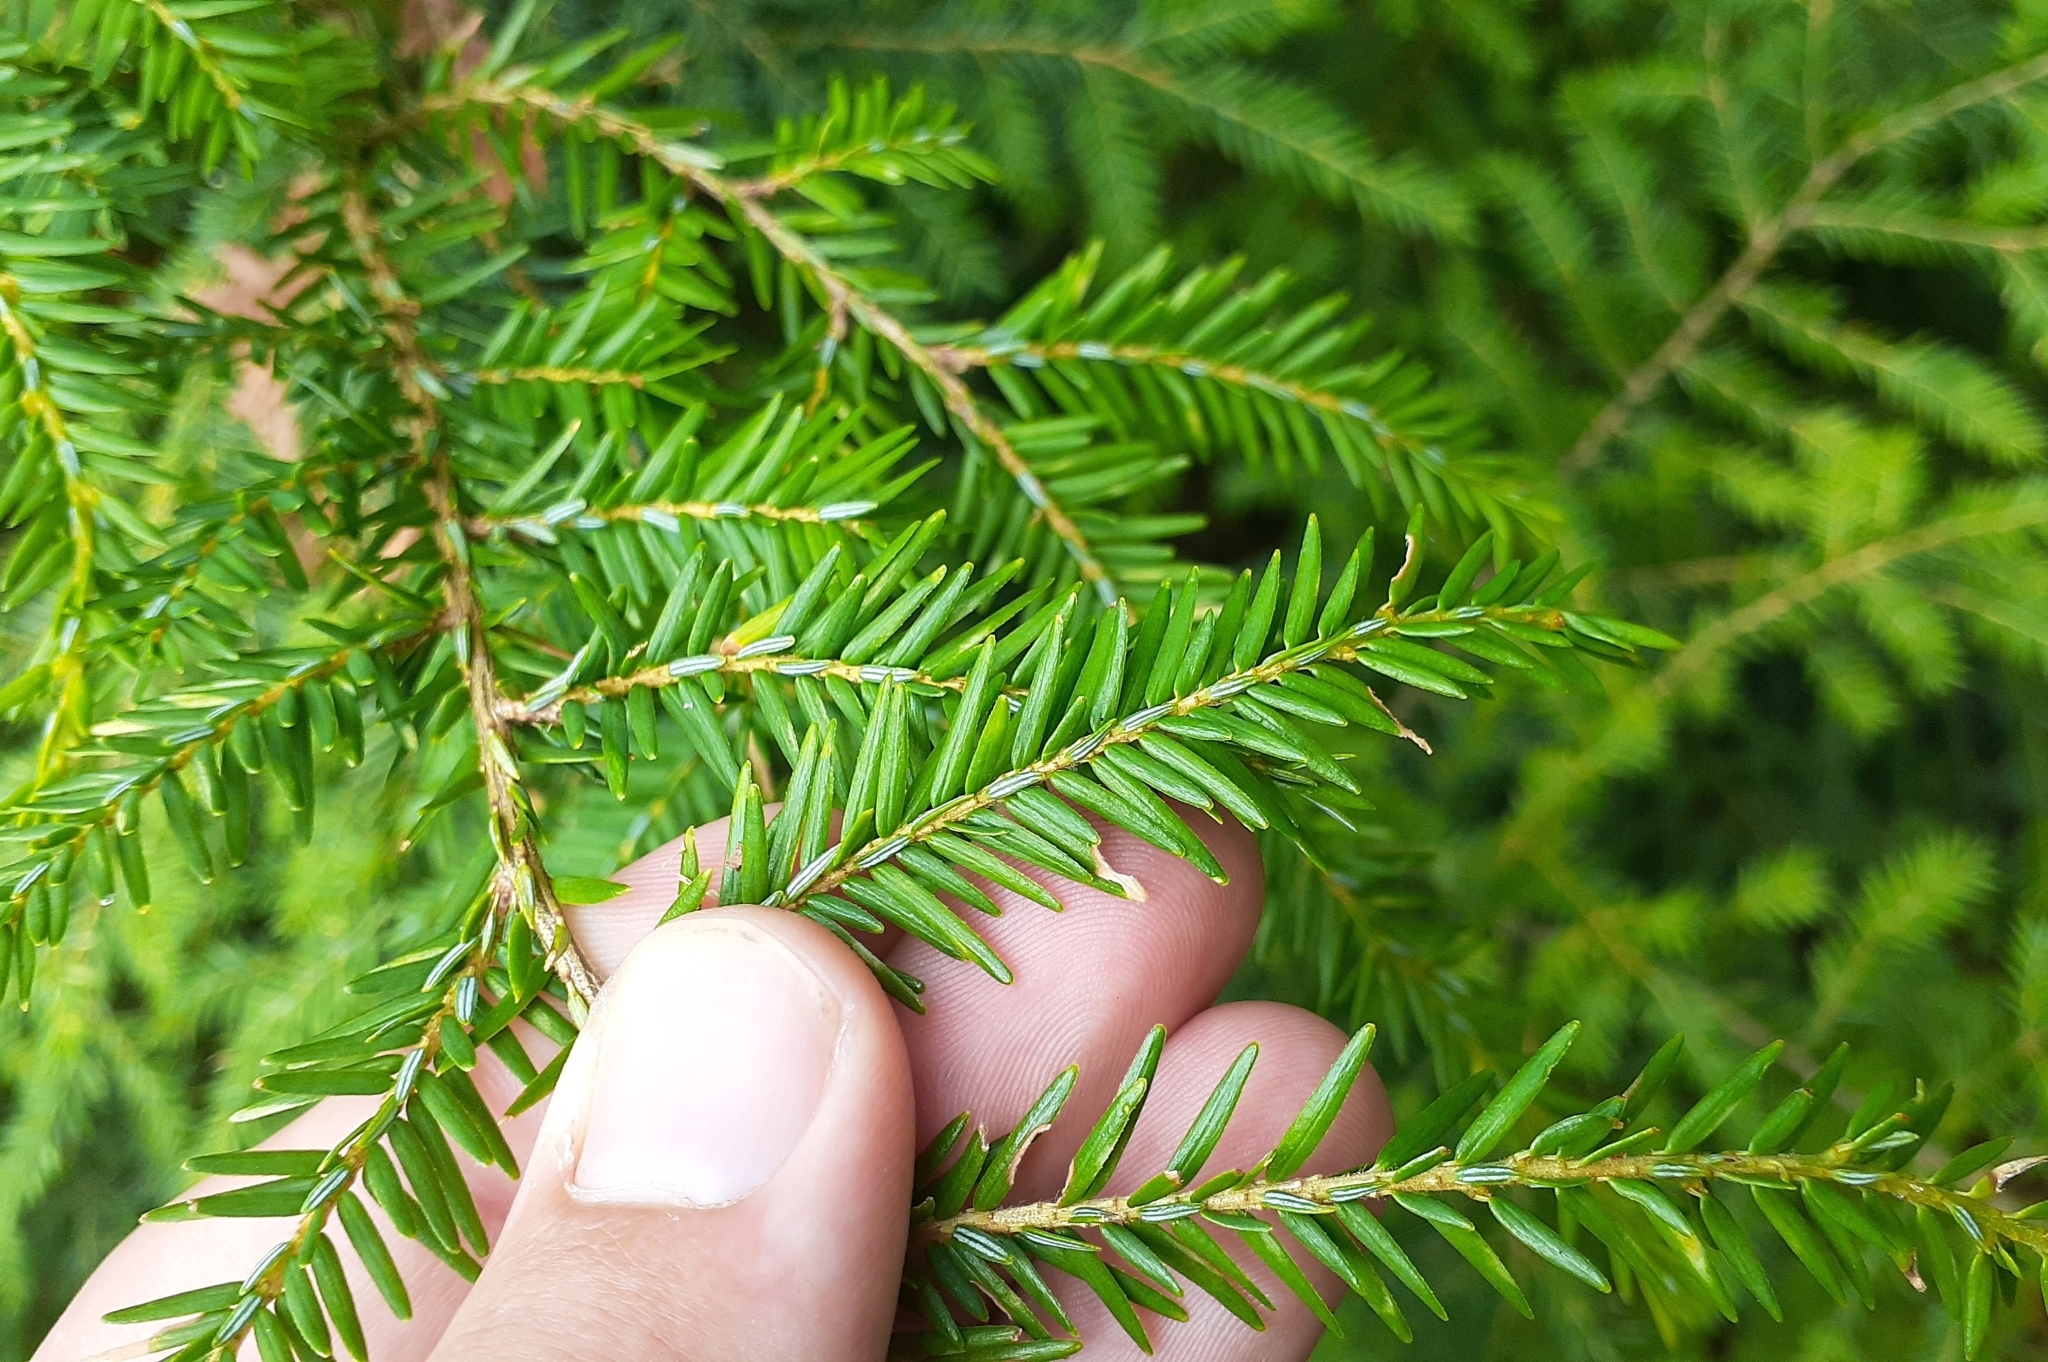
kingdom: Plantae
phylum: Tracheophyta
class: Pinopsida
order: Pinales
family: Pinaceae
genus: Tsuga
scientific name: Tsuga canadensis
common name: Eastern hemlock
